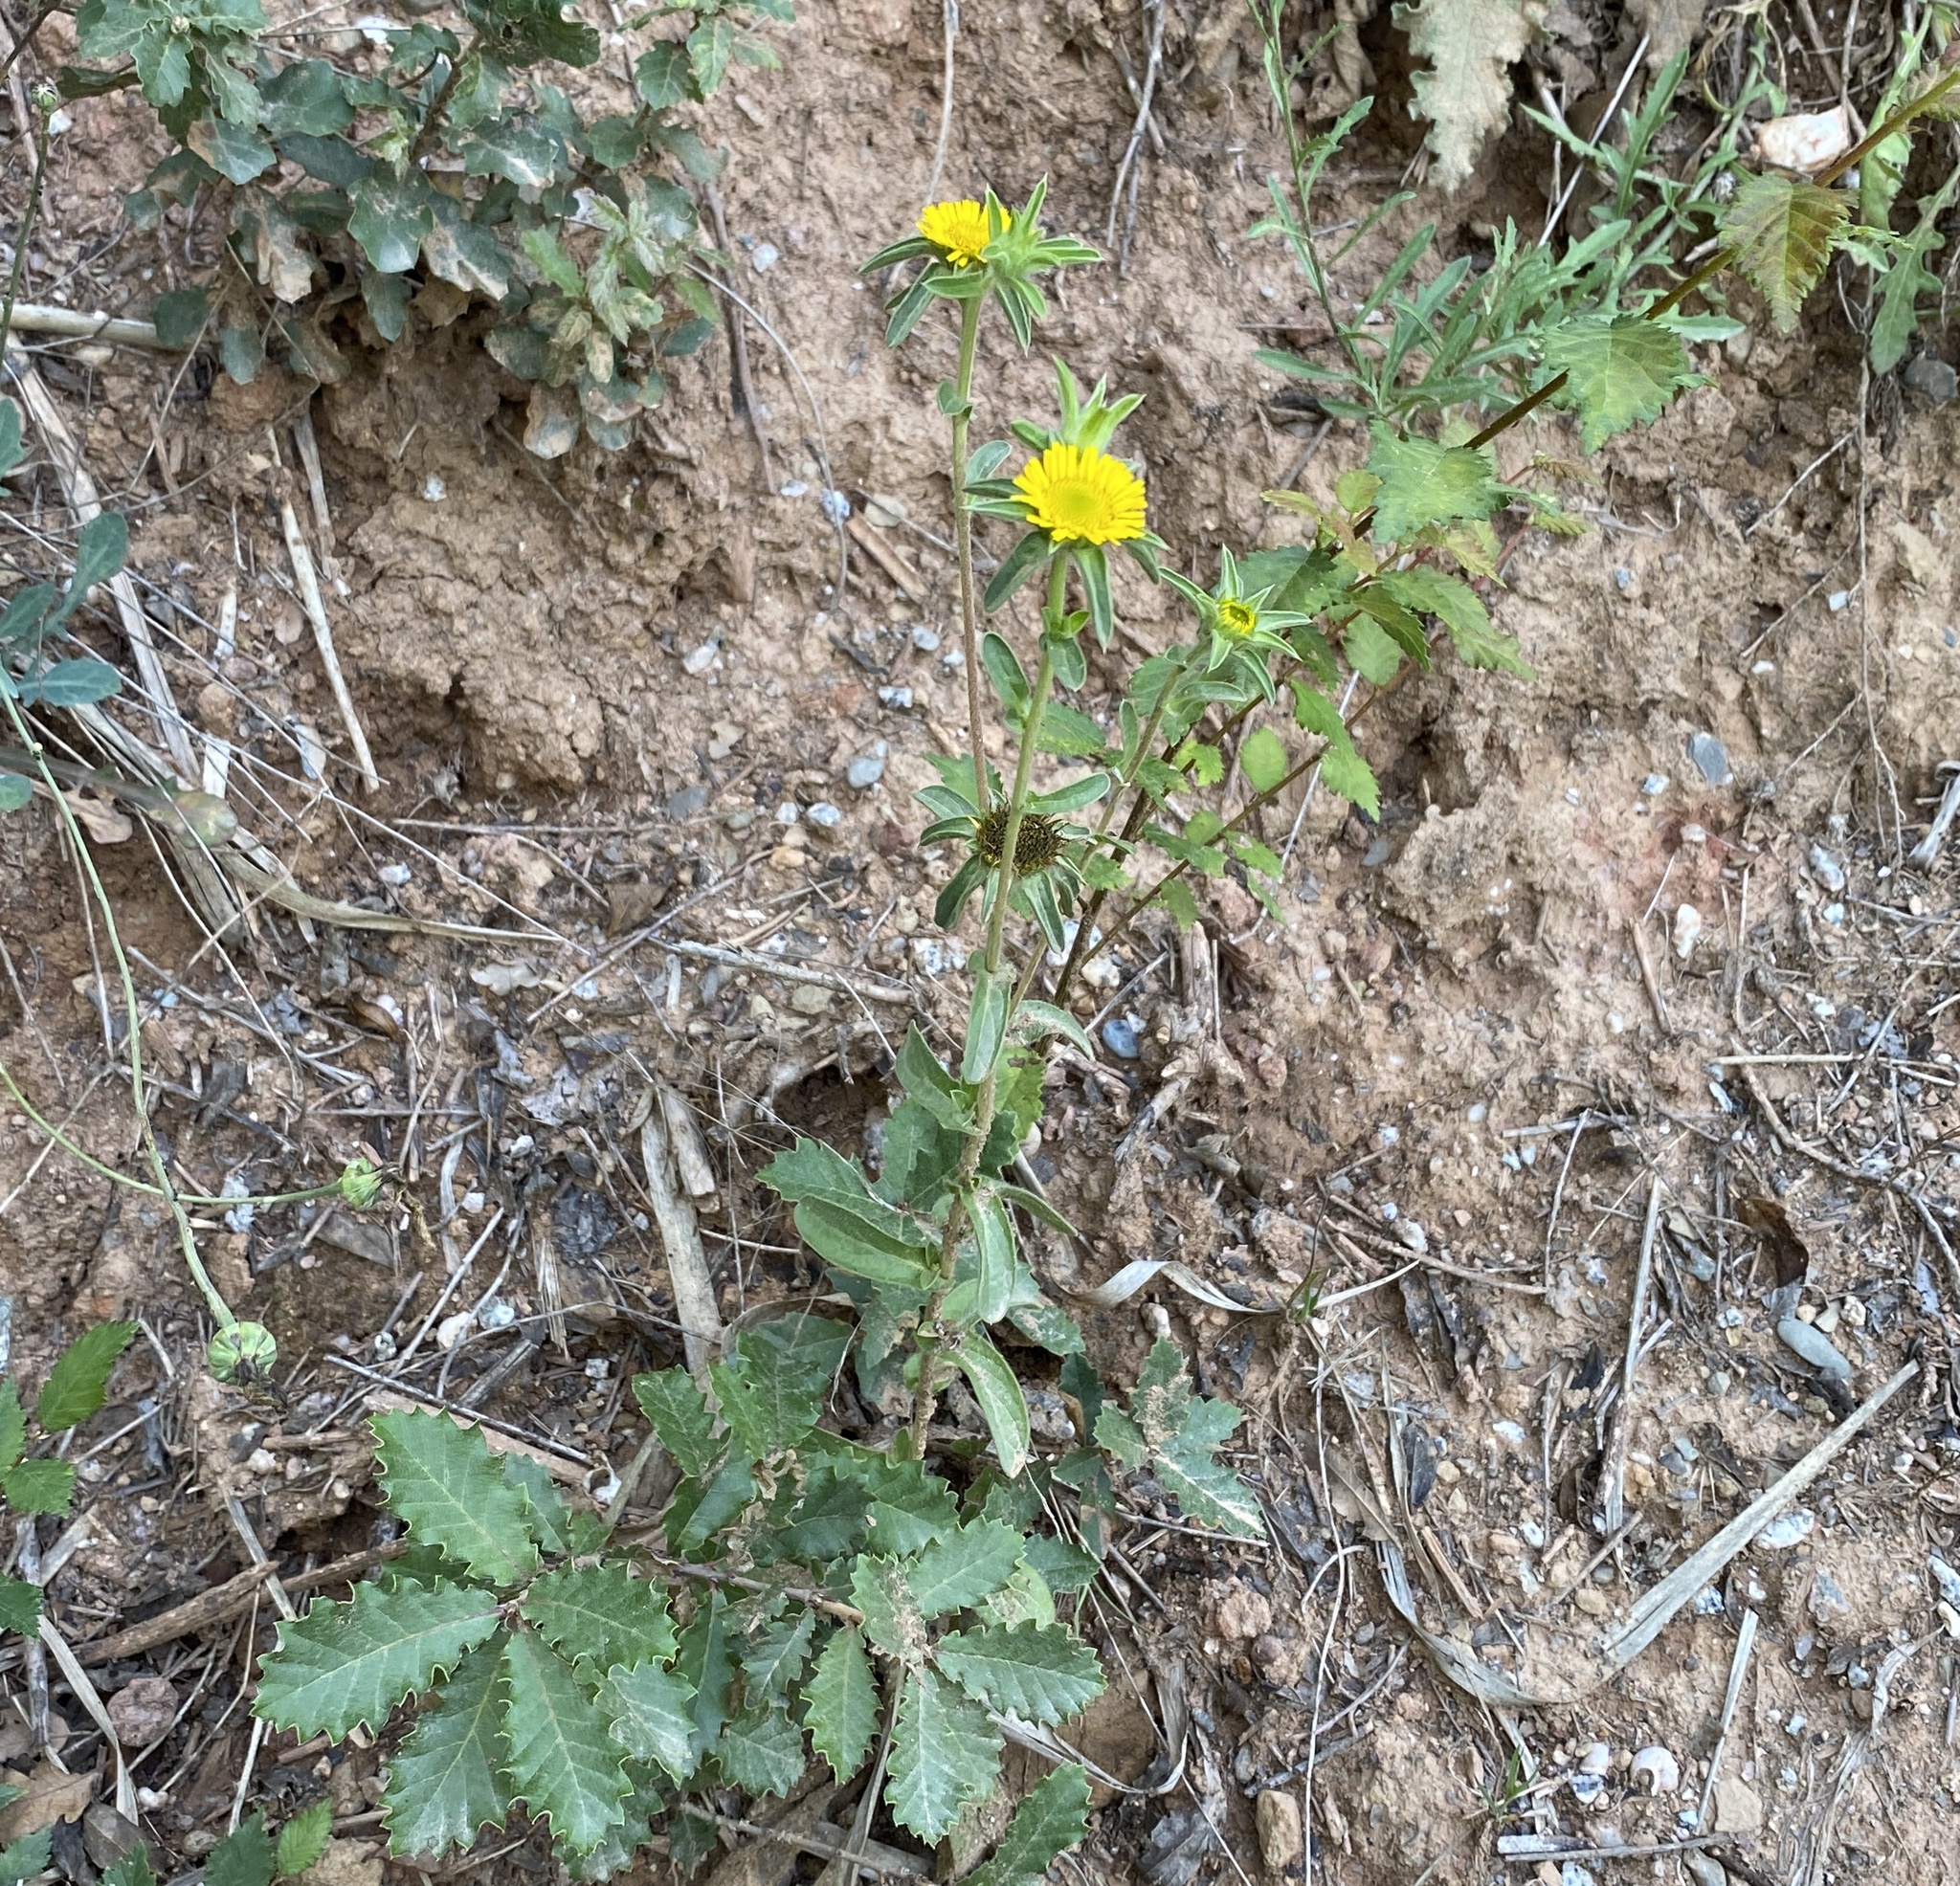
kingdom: Plantae
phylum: Tracheophyta
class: Magnoliopsida
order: Asterales
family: Asteraceae
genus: Pallenis
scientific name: Pallenis spinosa
